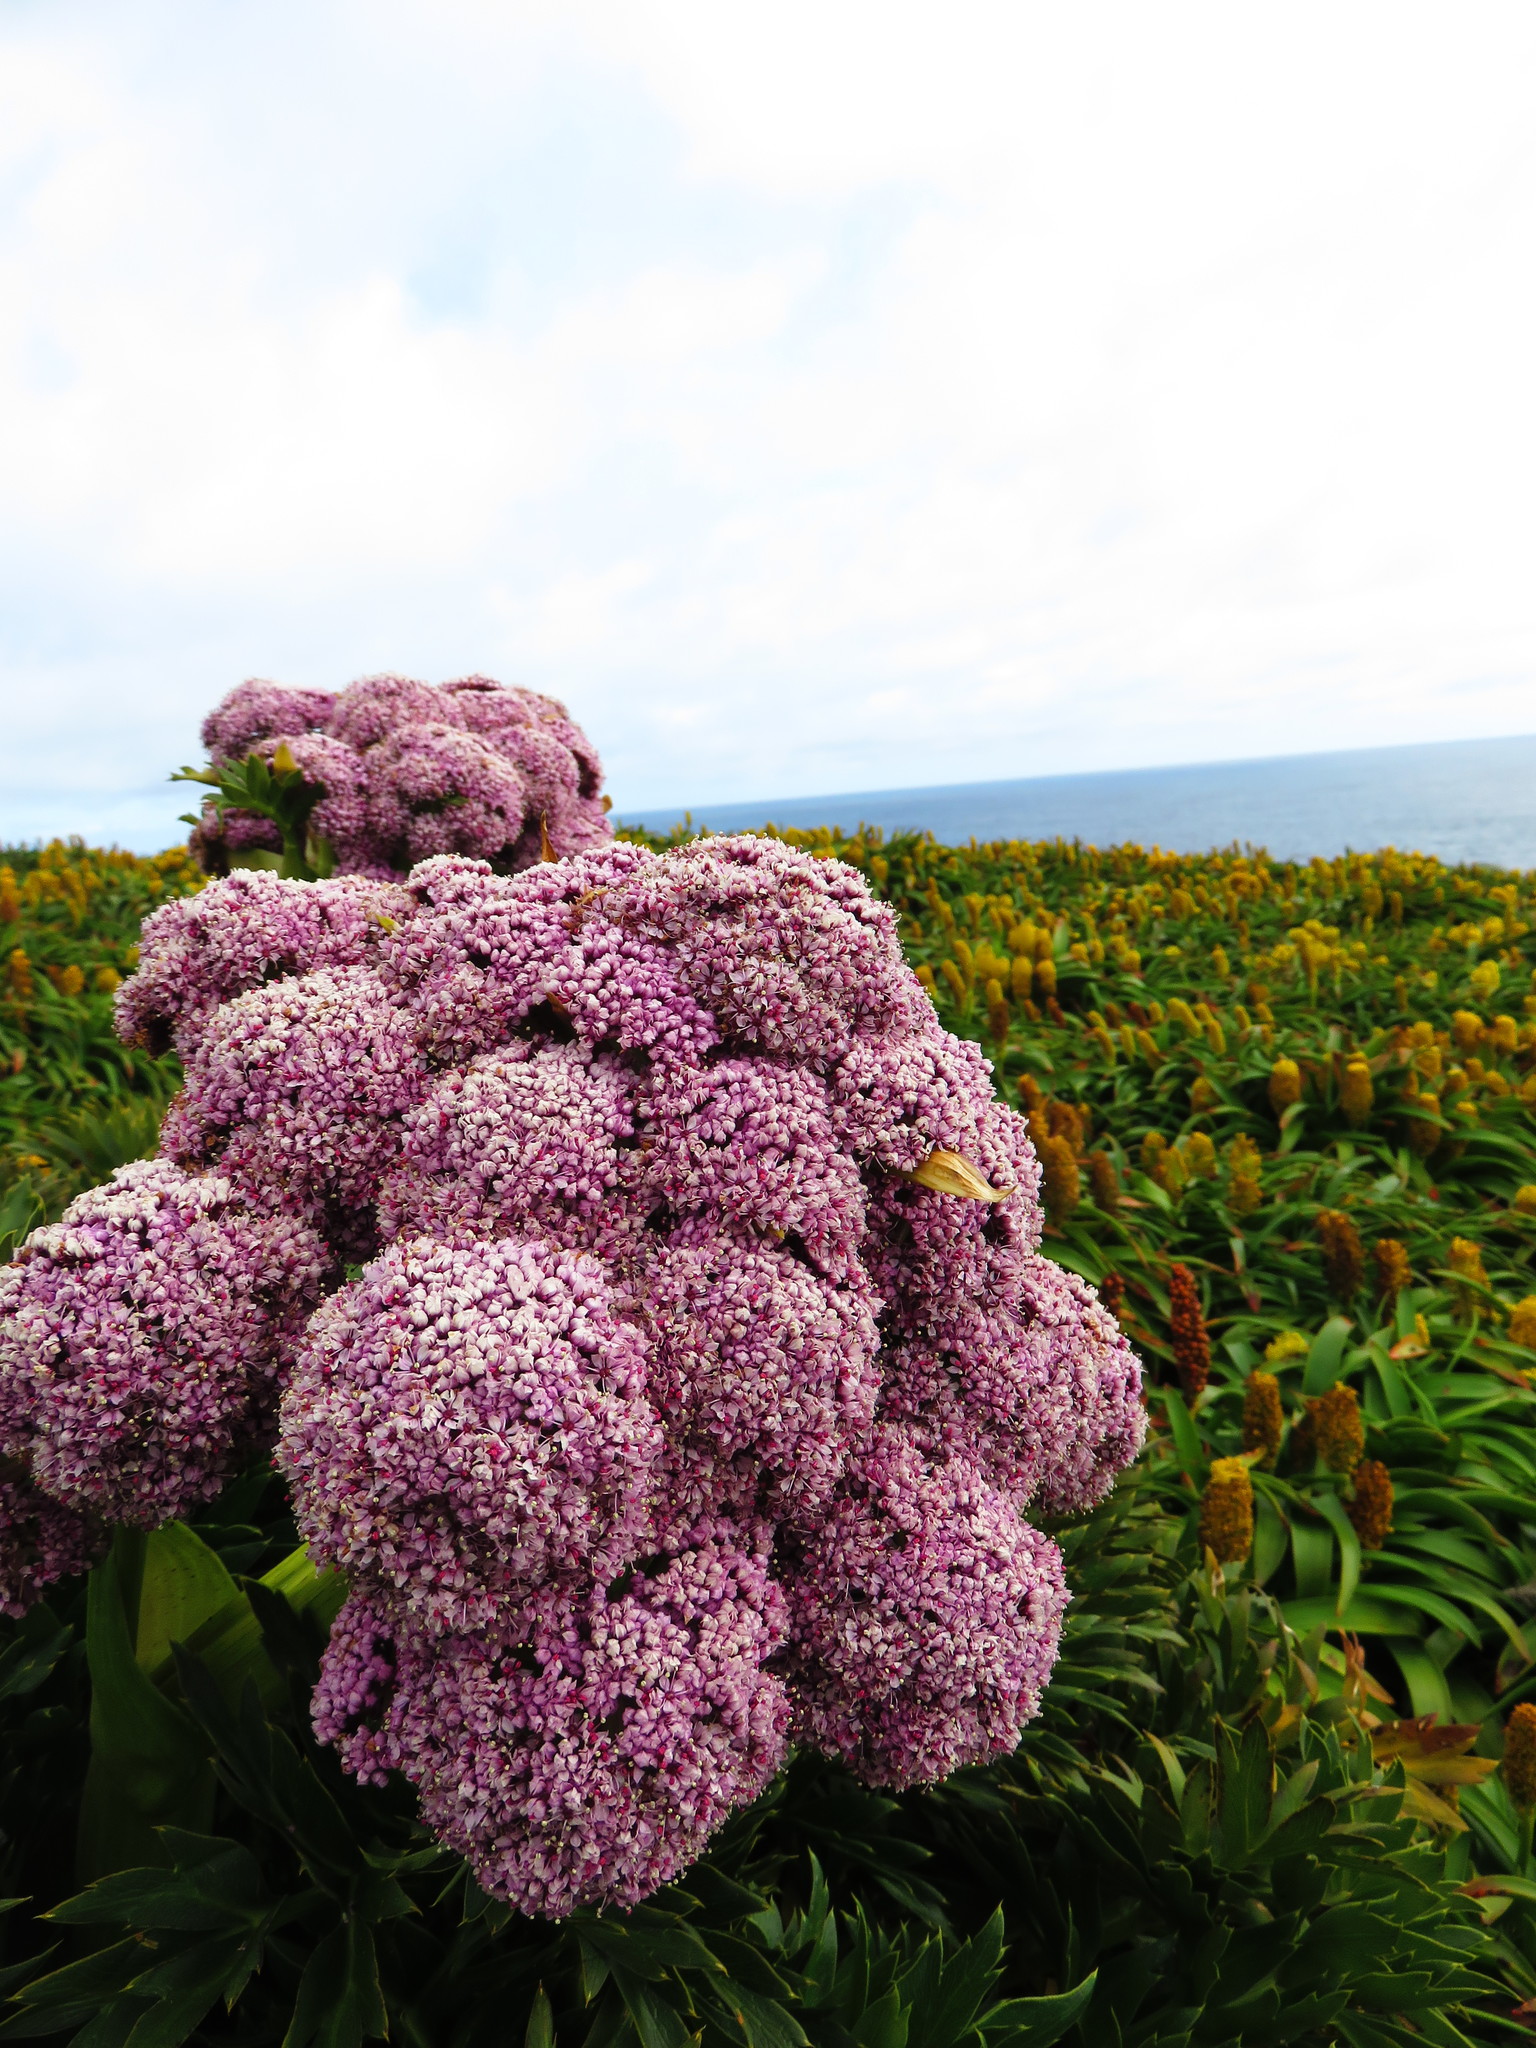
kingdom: Plantae
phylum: Tracheophyta
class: Magnoliopsida
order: Apiales
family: Apiaceae
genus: Anisotome
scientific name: Anisotome latifolia
